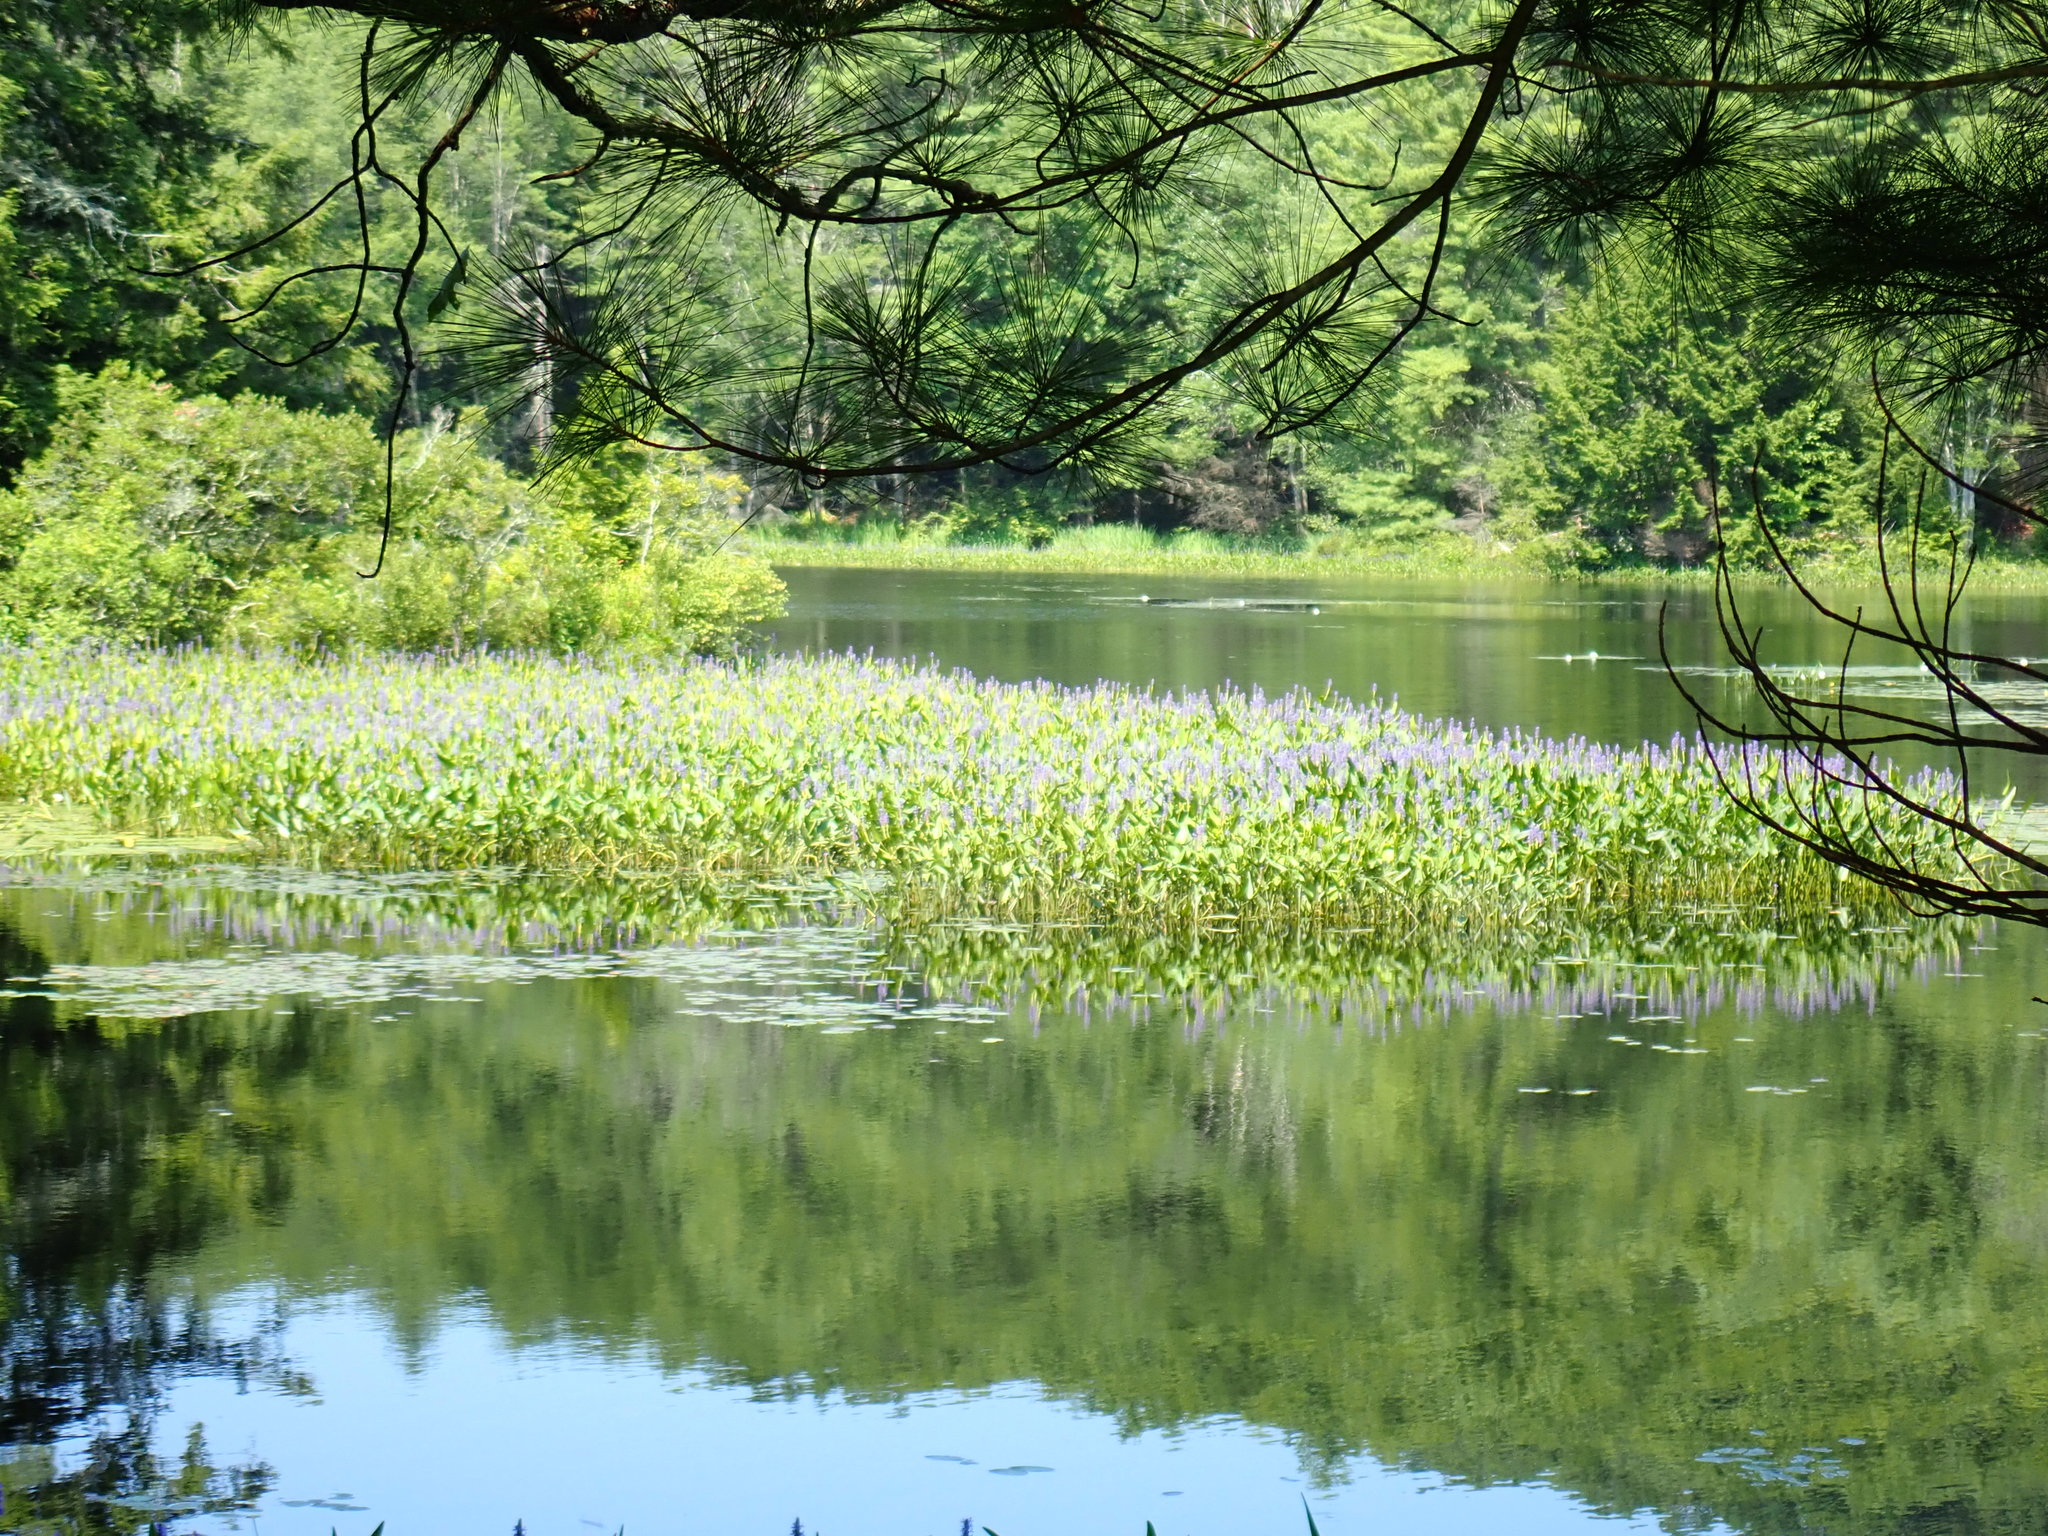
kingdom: Plantae
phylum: Tracheophyta
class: Liliopsida
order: Commelinales
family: Pontederiaceae
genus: Pontederia
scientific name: Pontederia cordata
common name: Pickerelweed
